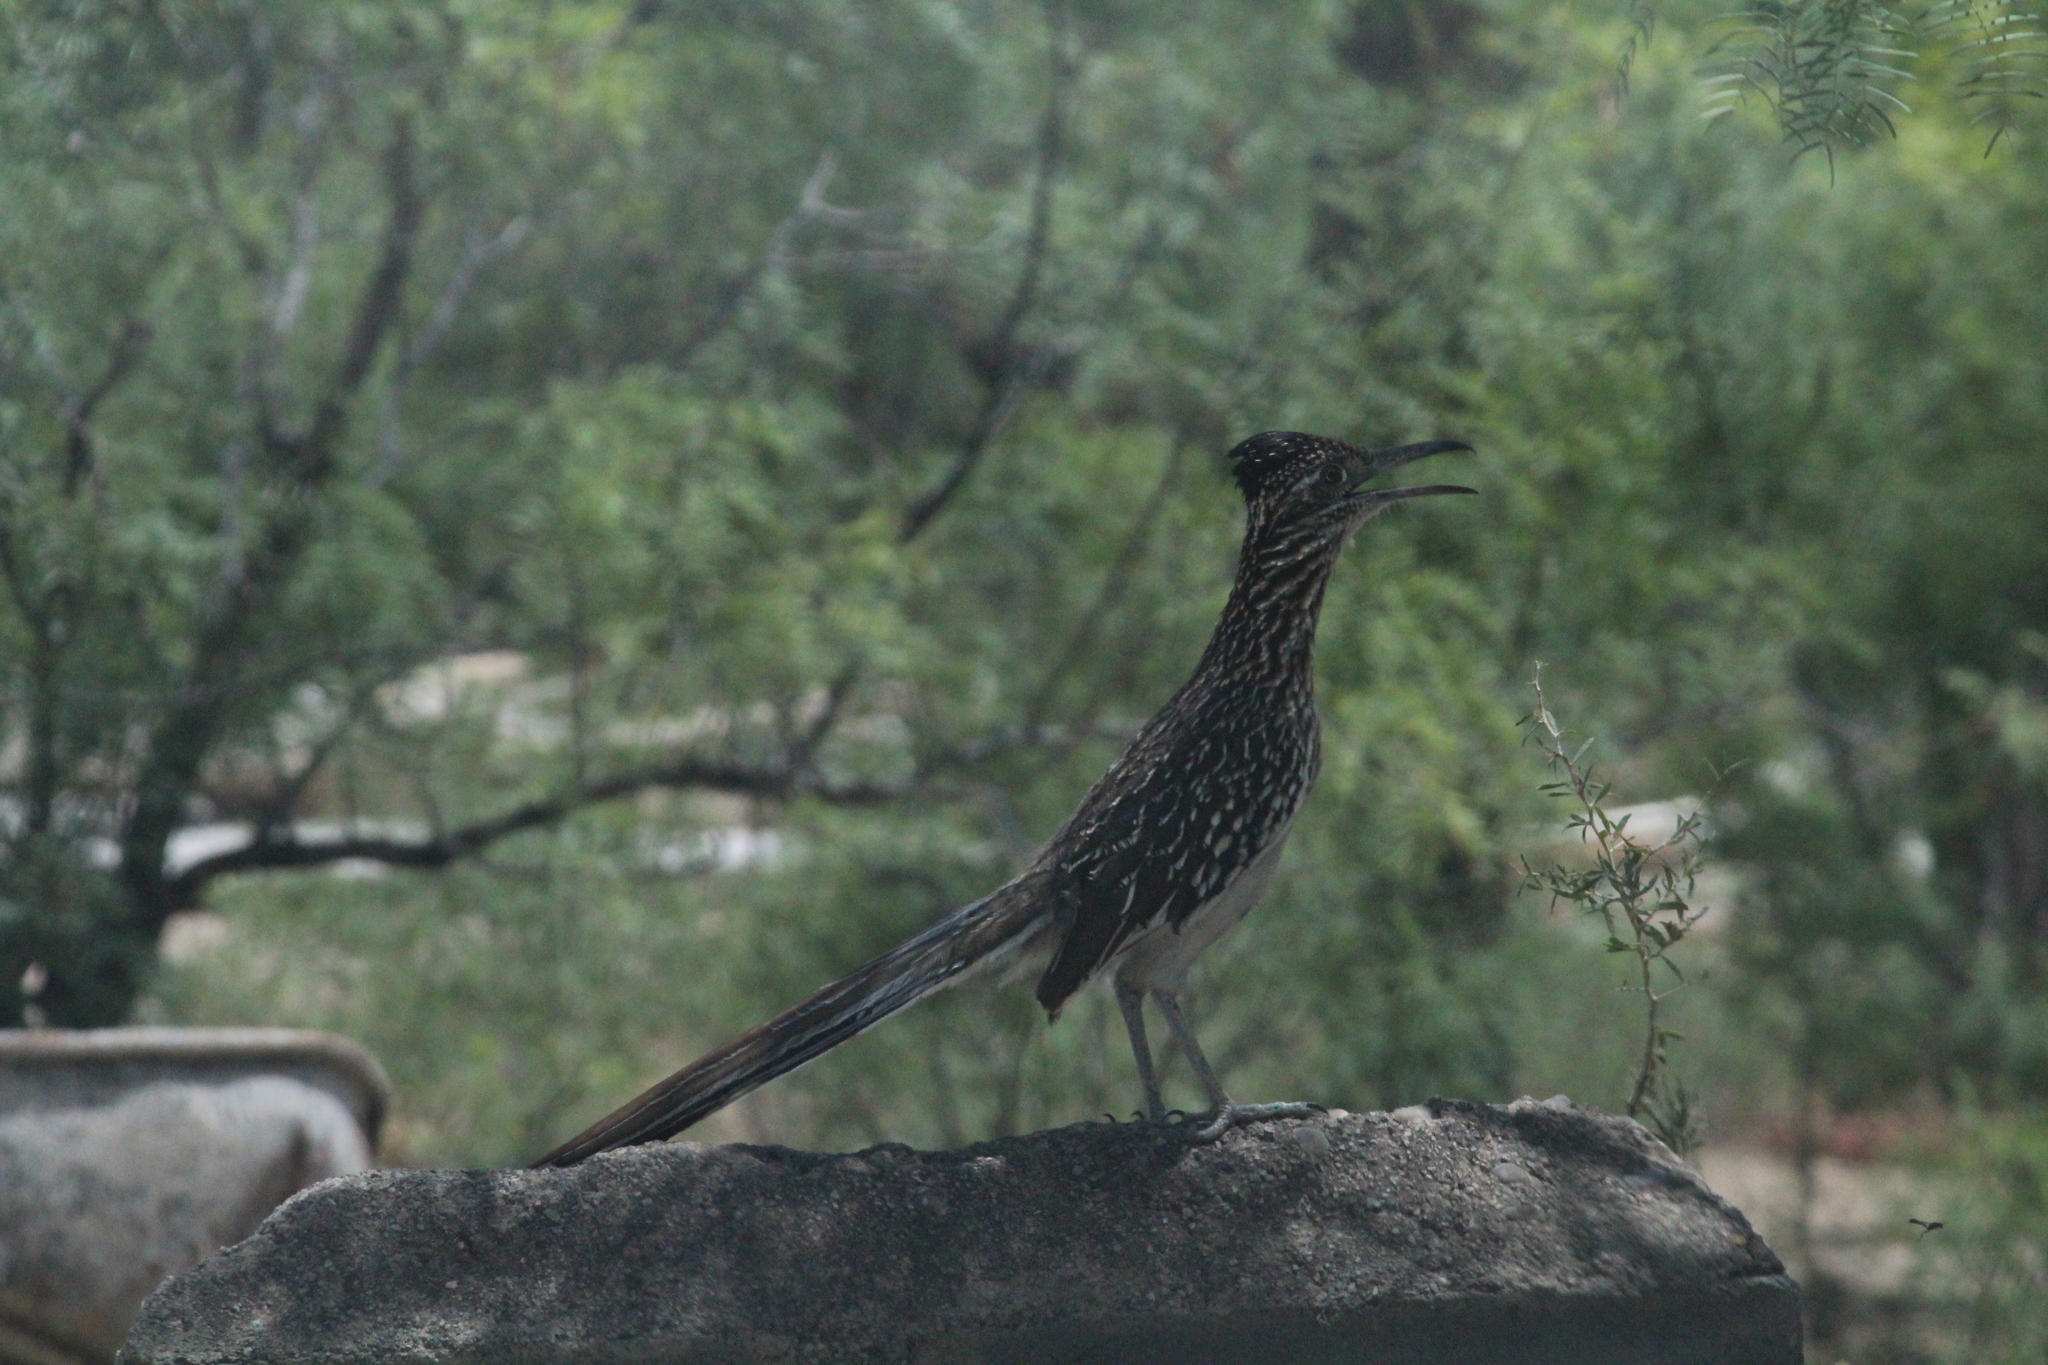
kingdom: Animalia
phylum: Chordata
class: Aves
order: Cuculiformes
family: Cuculidae
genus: Geococcyx
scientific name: Geococcyx californianus
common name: Greater roadrunner
